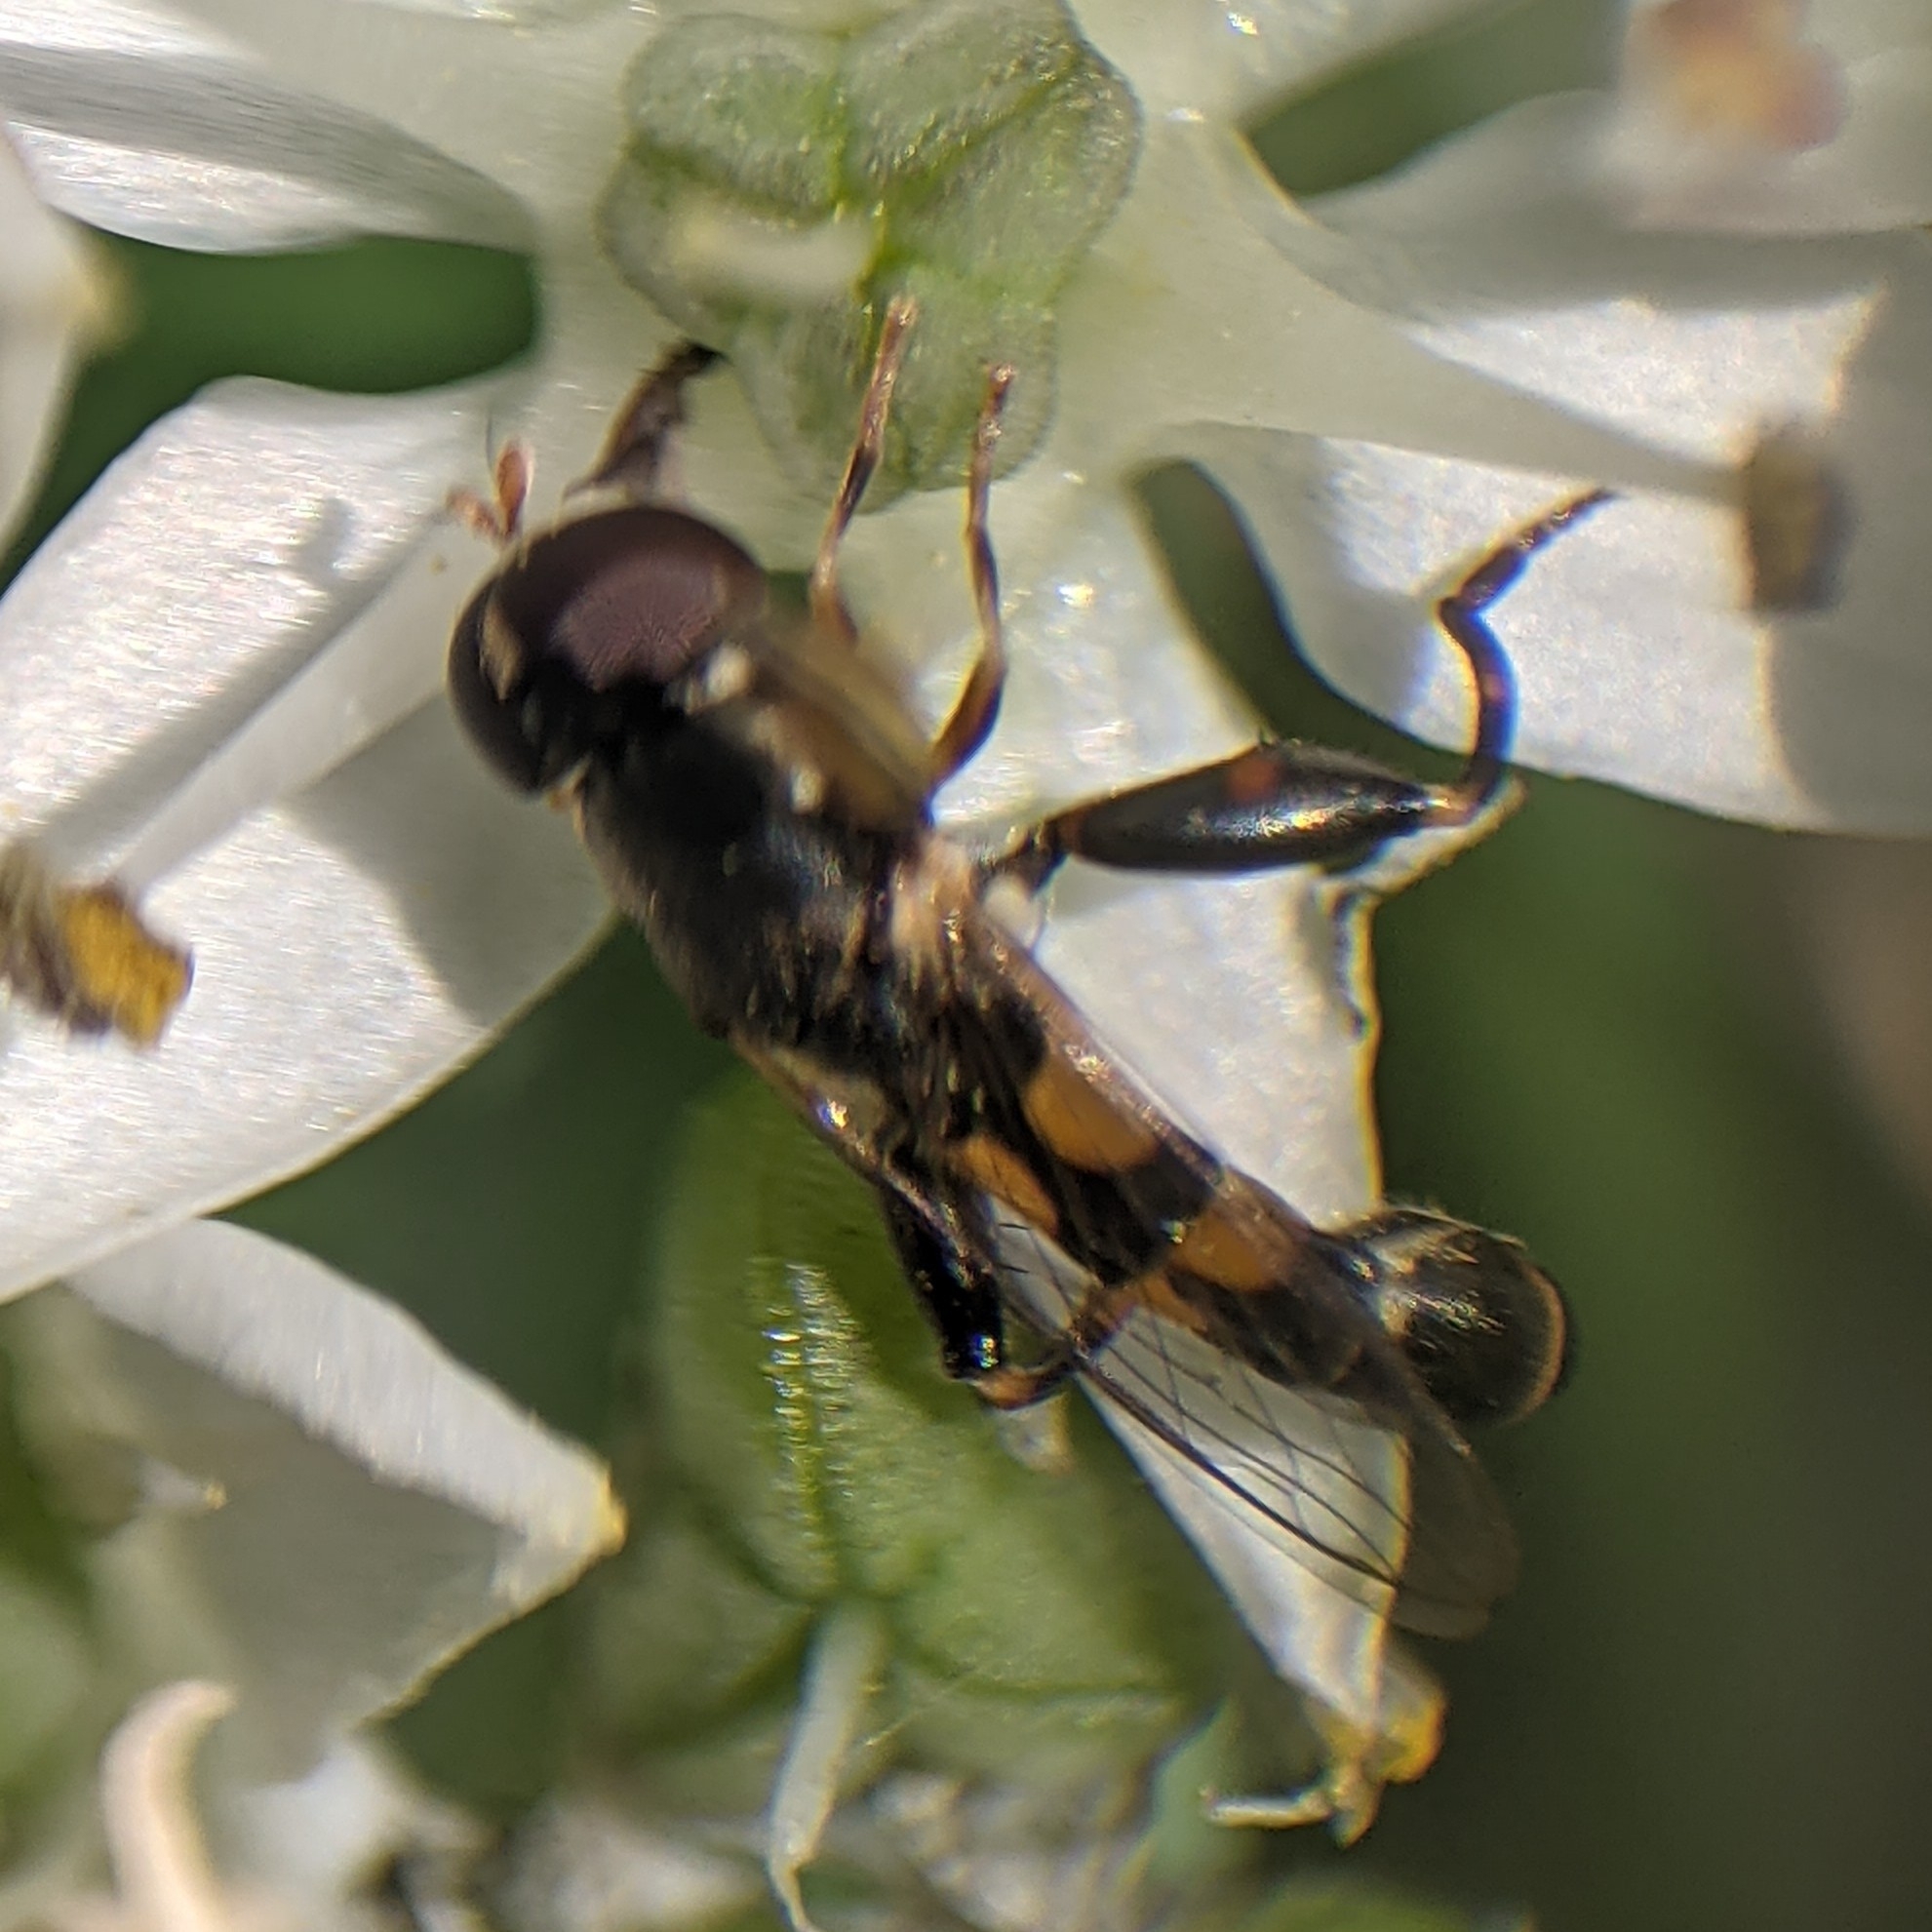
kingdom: Animalia
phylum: Arthropoda
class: Insecta
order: Diptera
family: Syrphidae
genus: Syritta
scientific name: Syritta pipiens
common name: Hover fly
